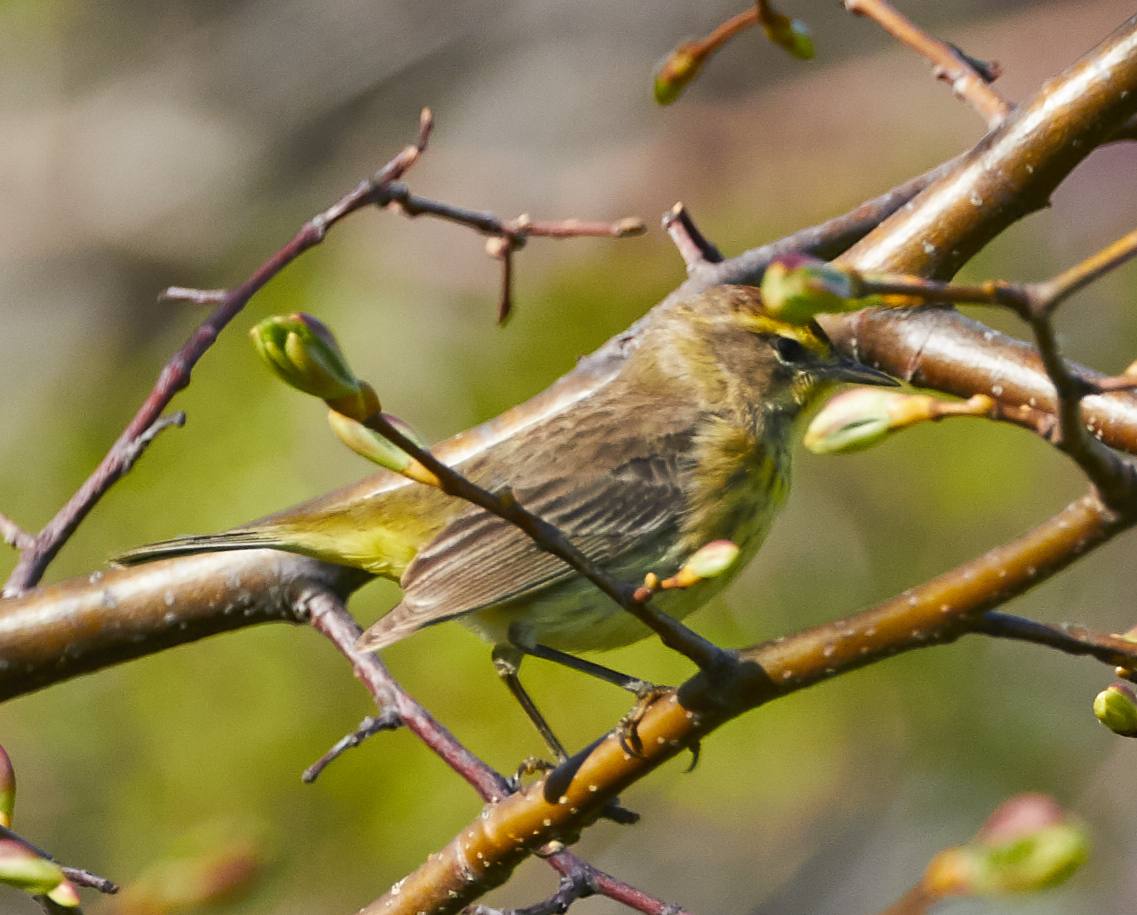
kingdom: Animalia
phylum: Chordata
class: Aves
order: Passeriformes
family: Parulidae
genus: Setophaga
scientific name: Setophaga palmarum
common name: Palm warbler
